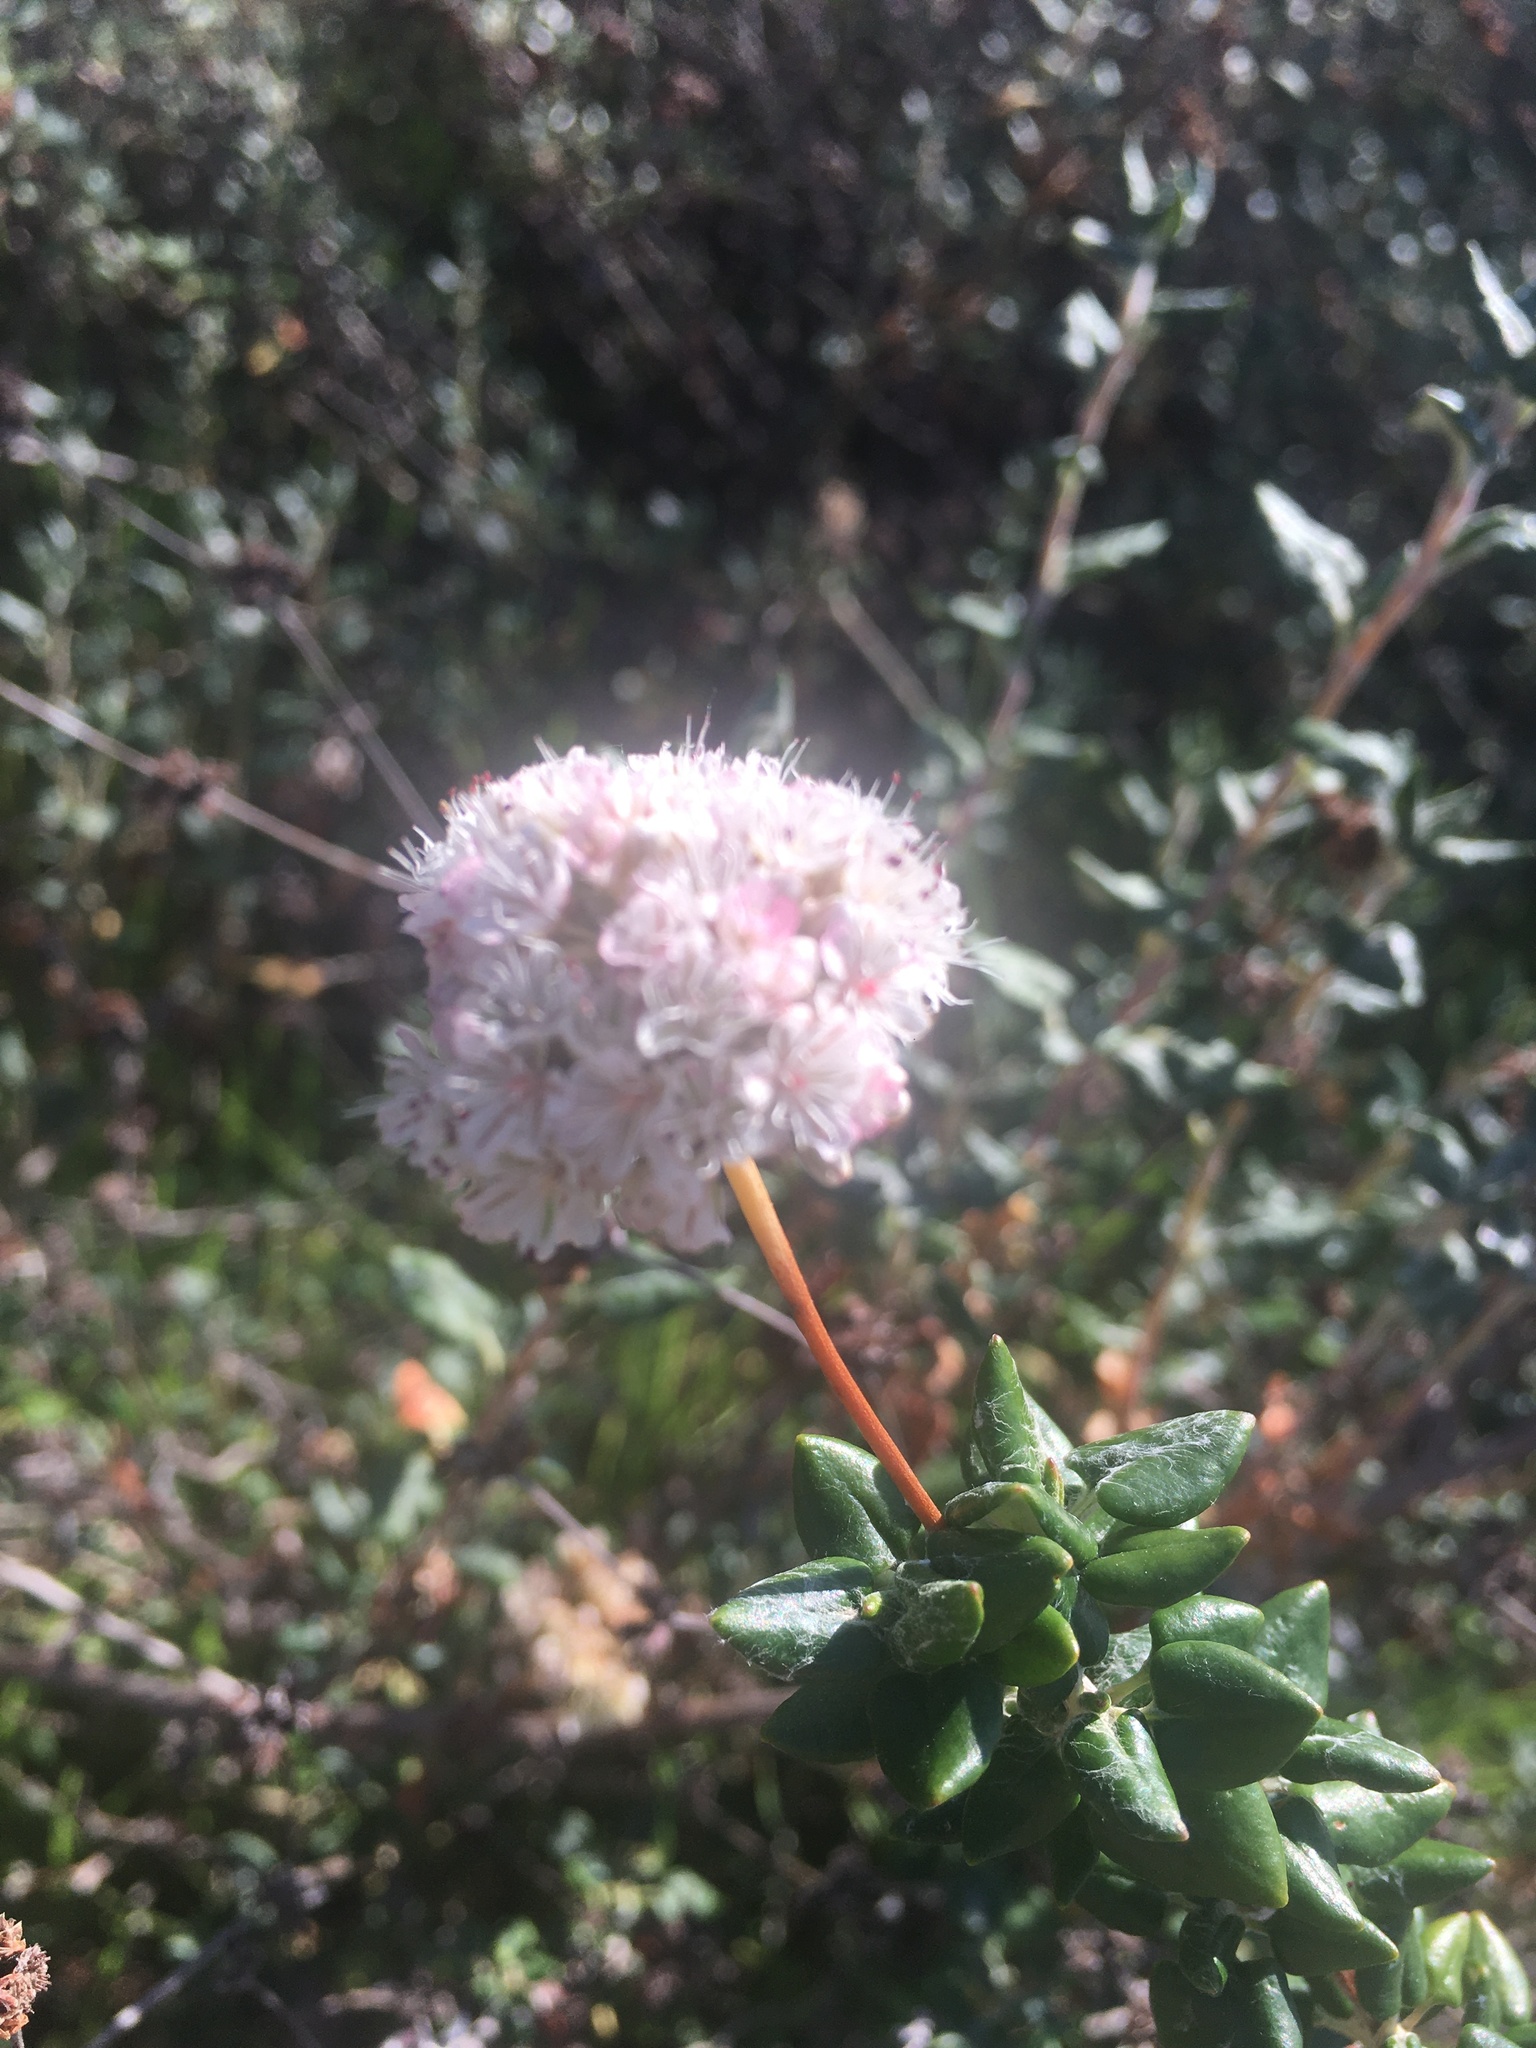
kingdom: Plantae
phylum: Tracheophyta
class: Magnoliopsida
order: Caryophyllales
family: Polygonaceae
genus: Eriogonum
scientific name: Eriogonum parvifolium
